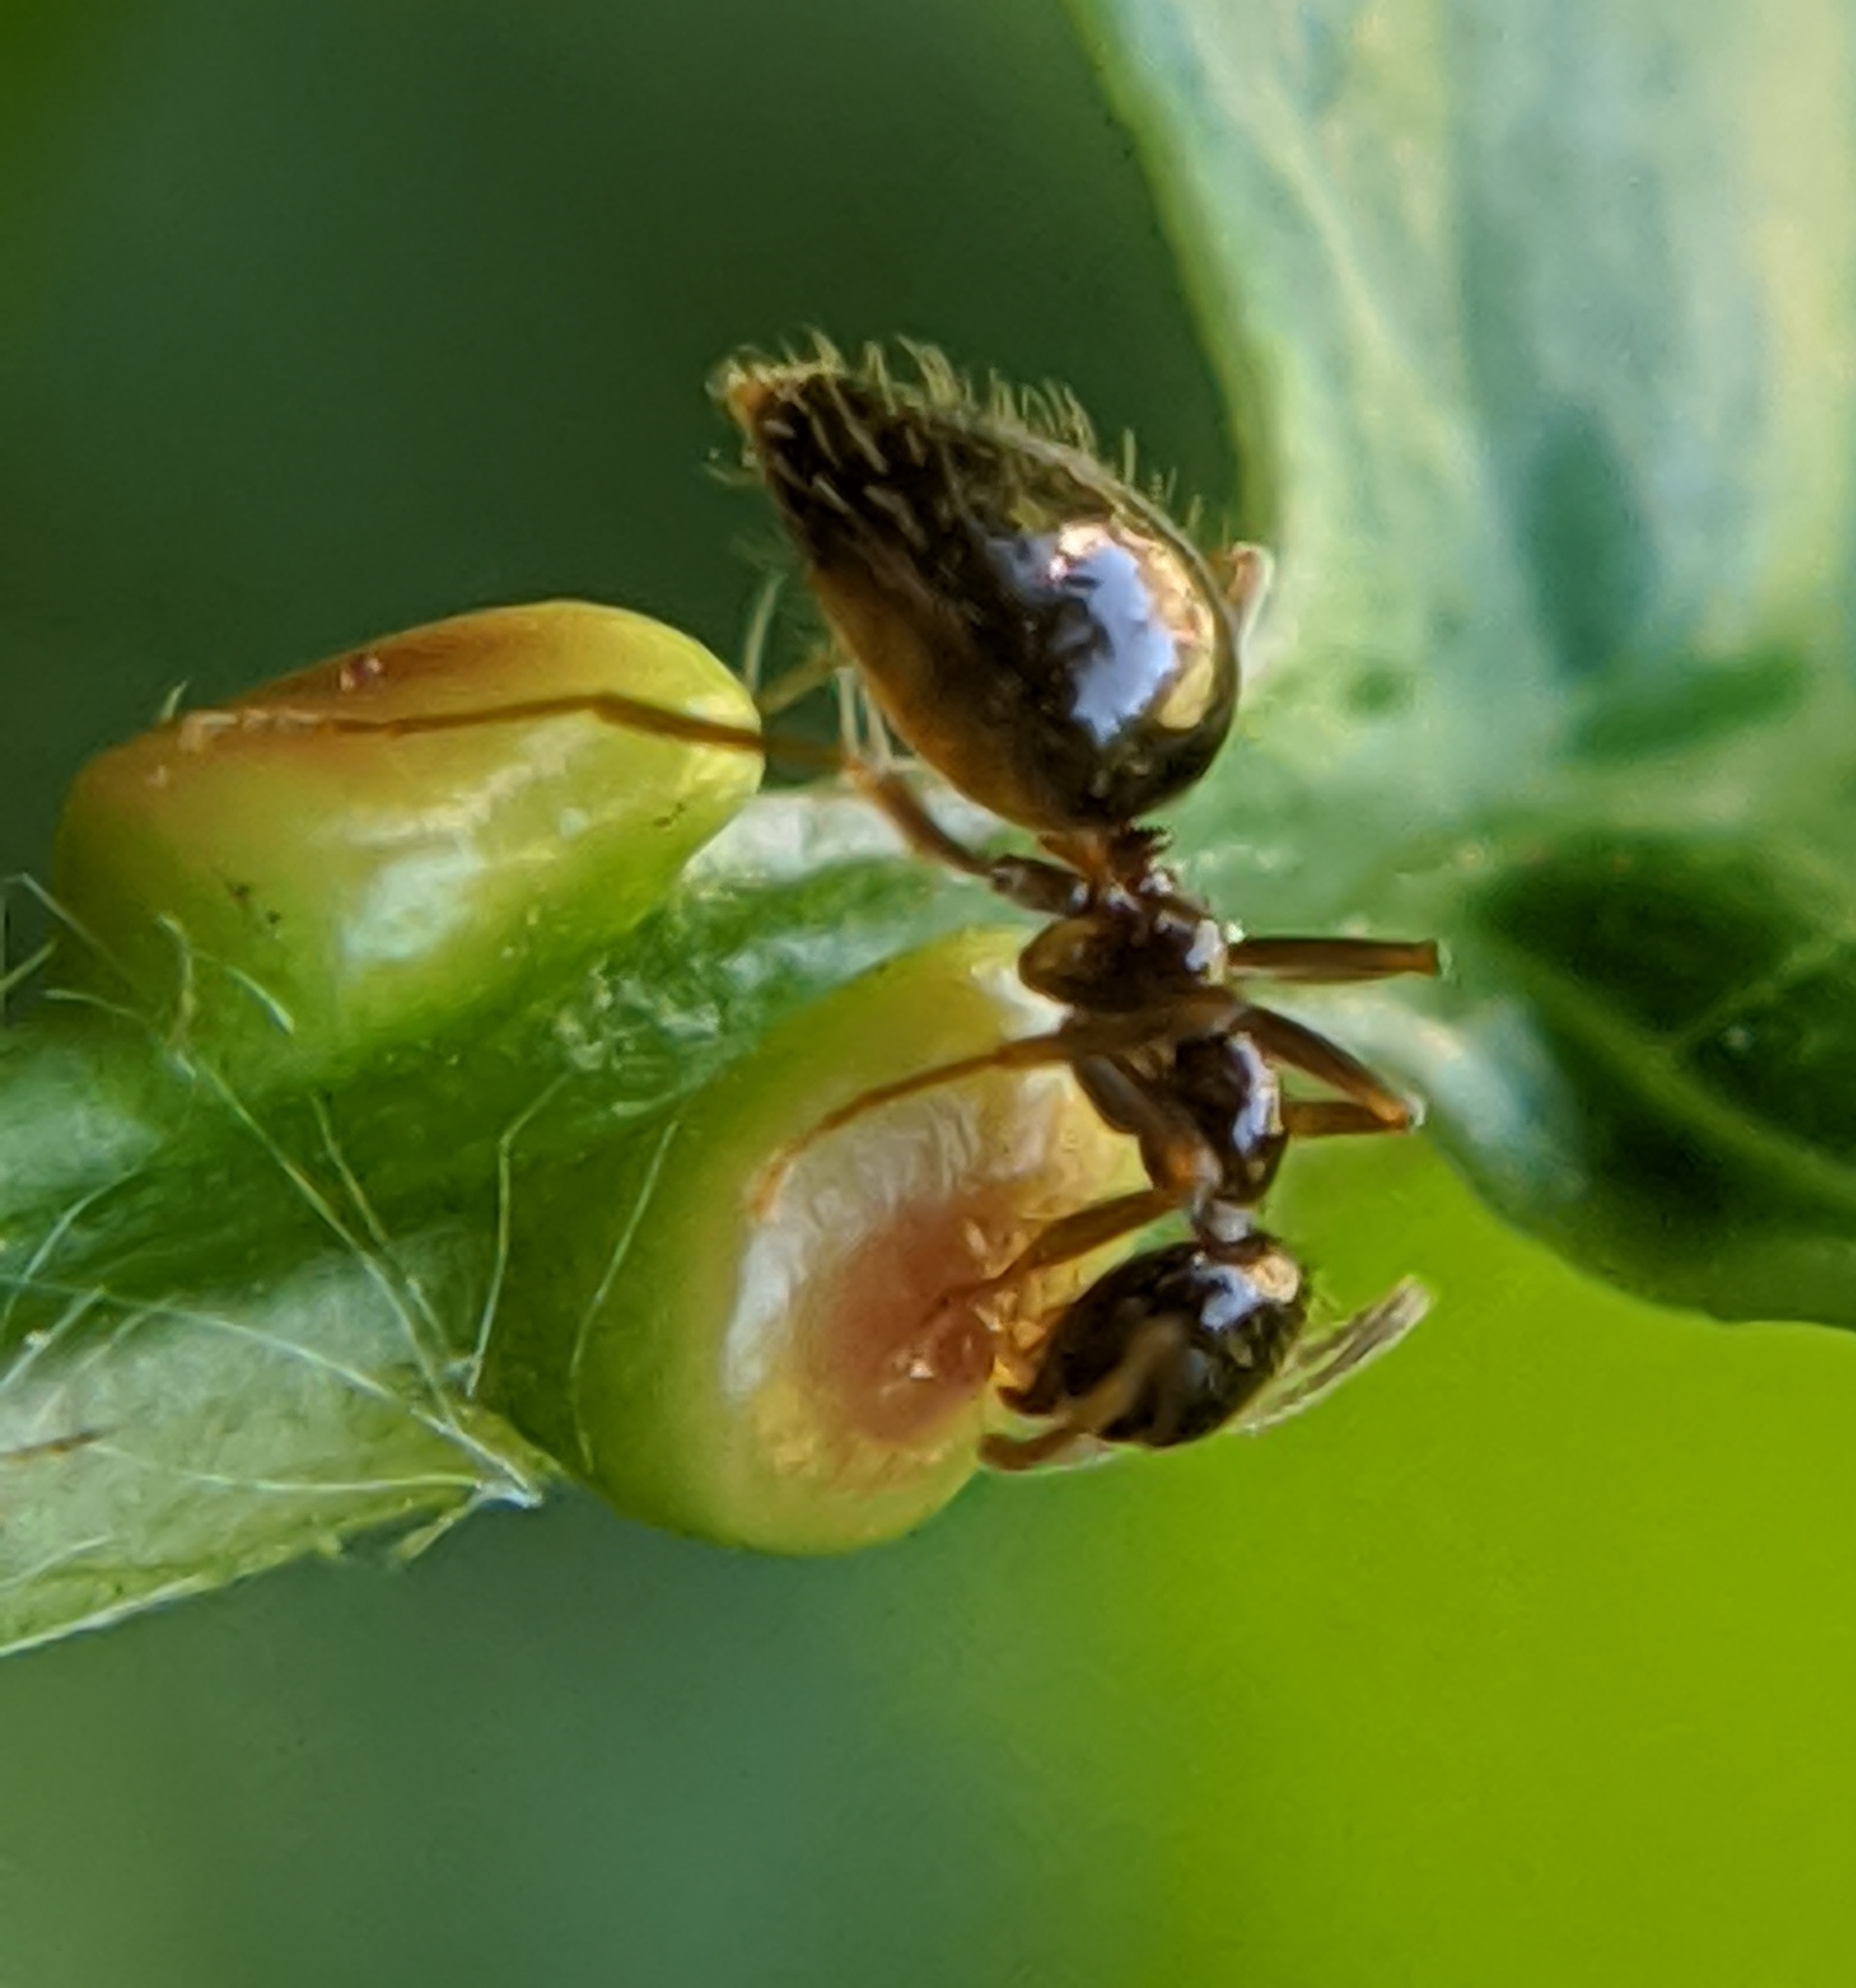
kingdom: Animalia
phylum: Arthropoda
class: Insecta
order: Hymenoptera
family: Formicidae
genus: Prenolepis
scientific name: Prenolepis imparis
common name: Small honey ant
